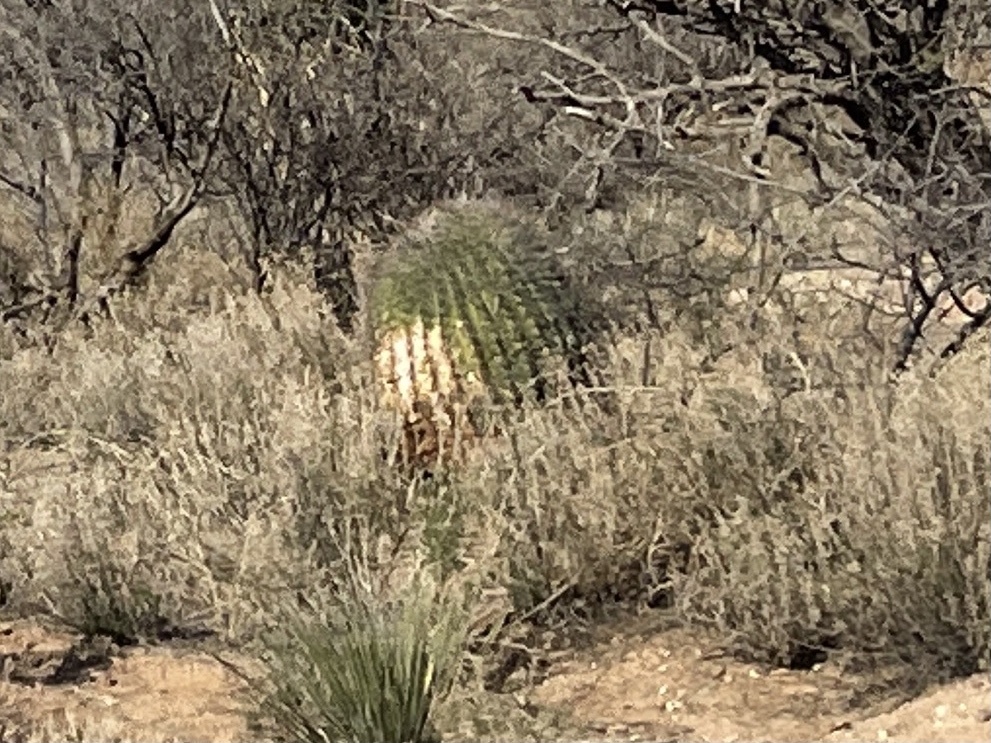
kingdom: Plantae
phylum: Tracheophyta
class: Magnoliopsida
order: Caryophyllales
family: Cactaceae
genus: Ferocactus
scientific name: Ferocactus wislizeni
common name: Candy barrel cactus
